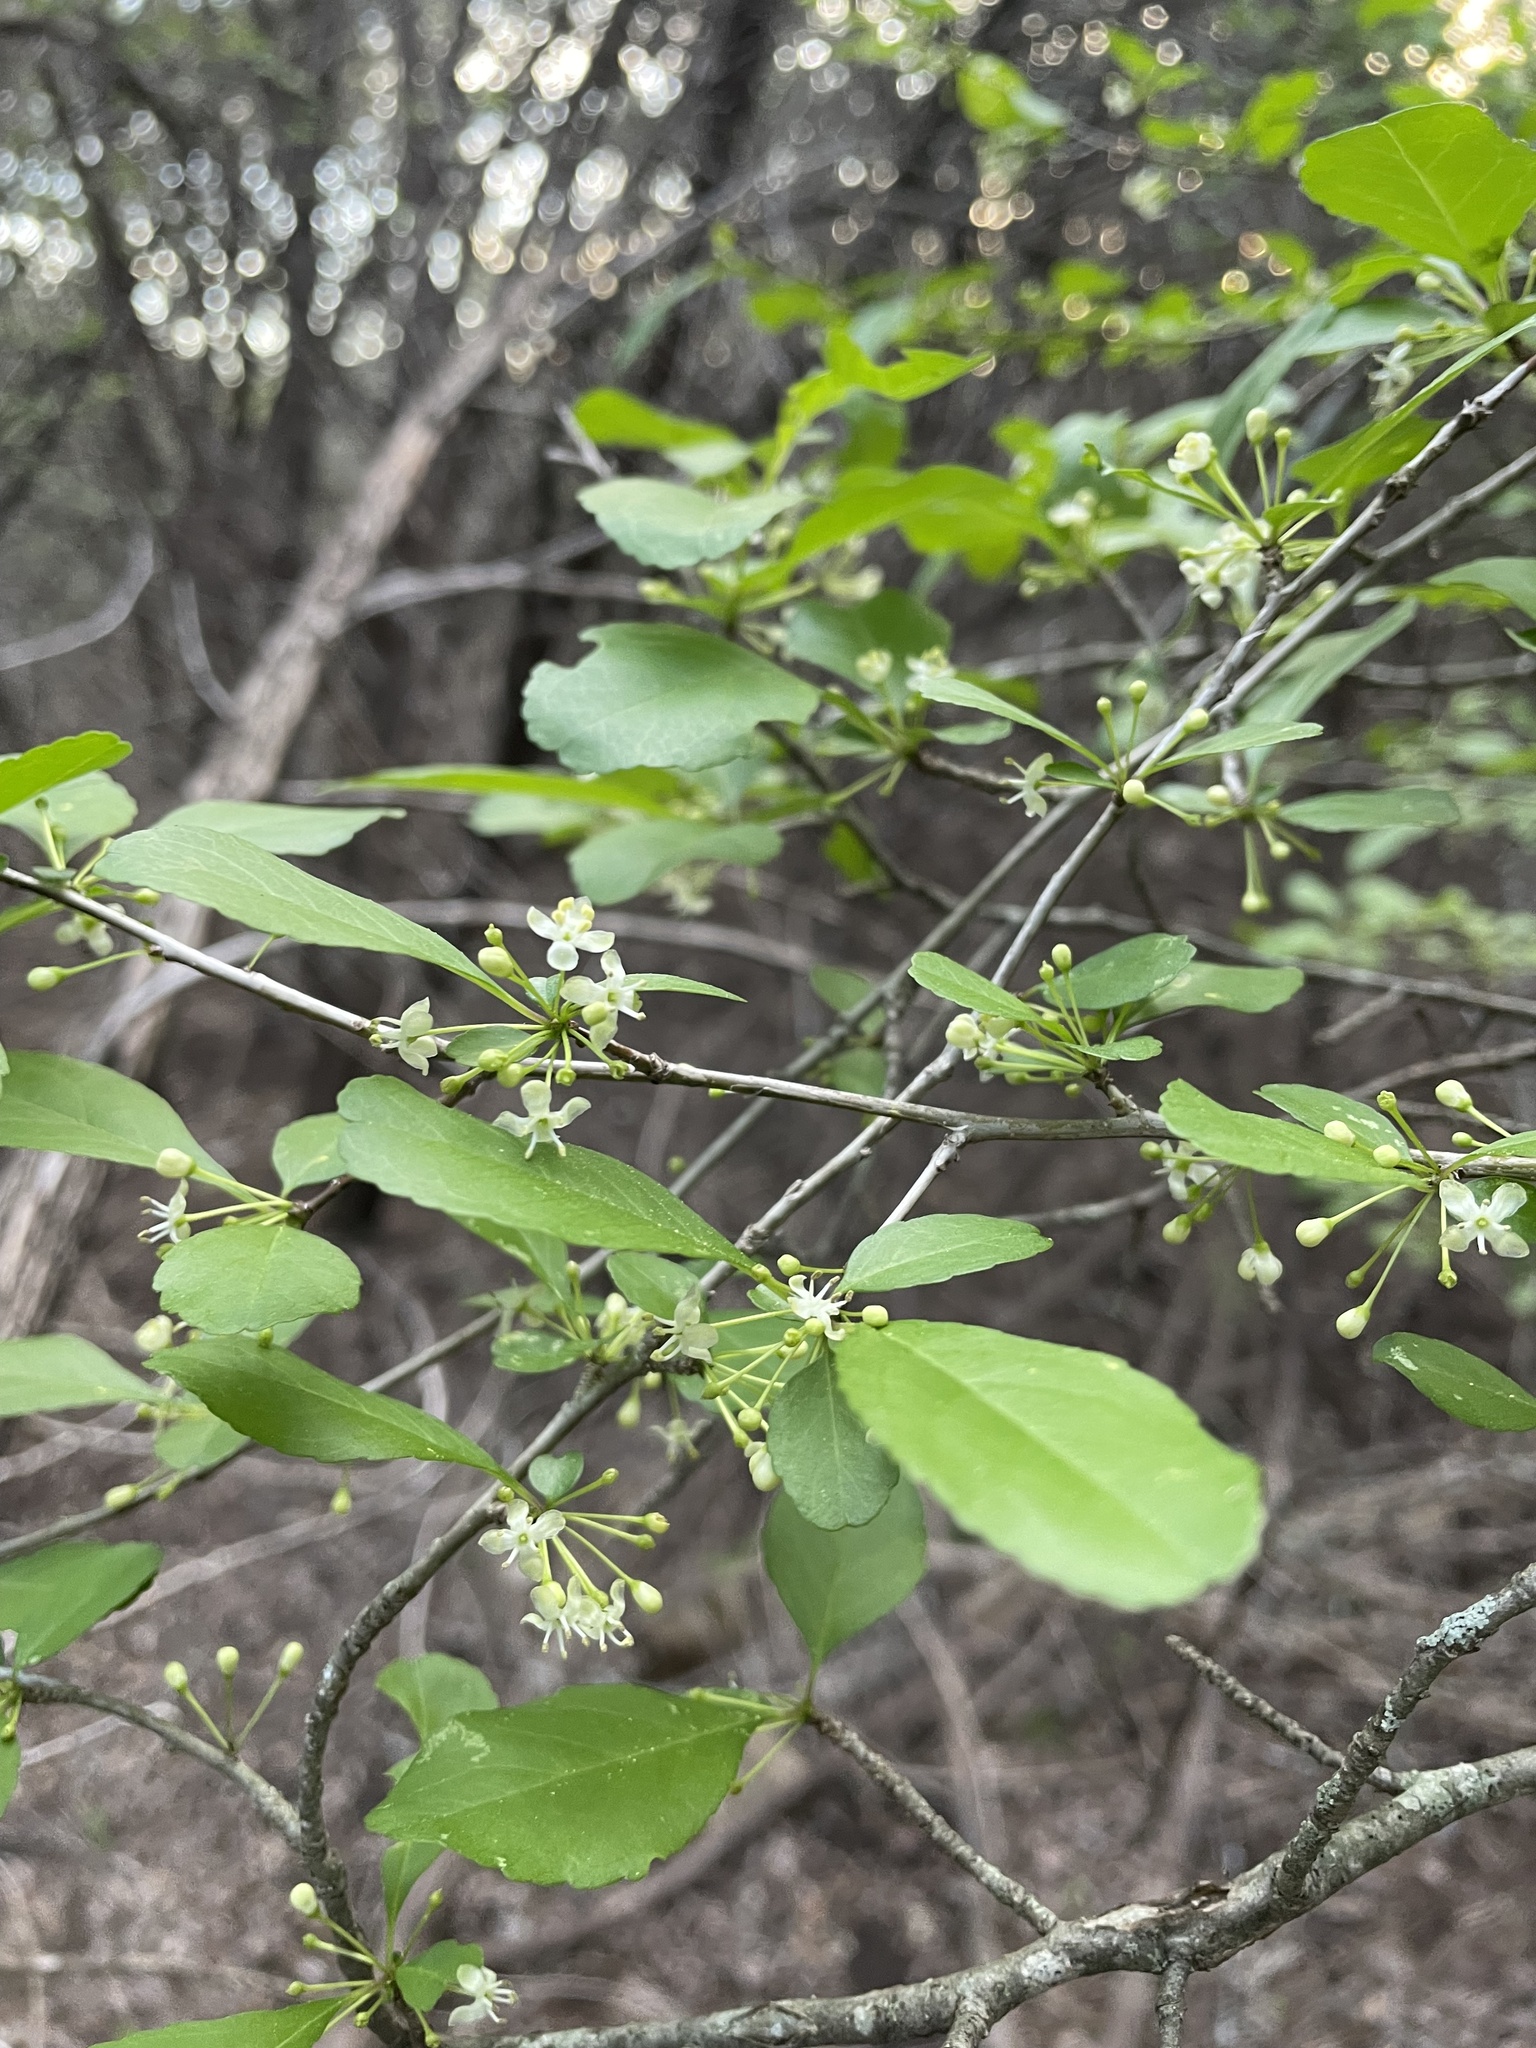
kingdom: Plantae
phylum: Tracheophyta
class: Magnoliopsida
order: Aquifoliales
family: Aquifoliaceae
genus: Ilex
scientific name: Ilex decidua
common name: Possum-haw
